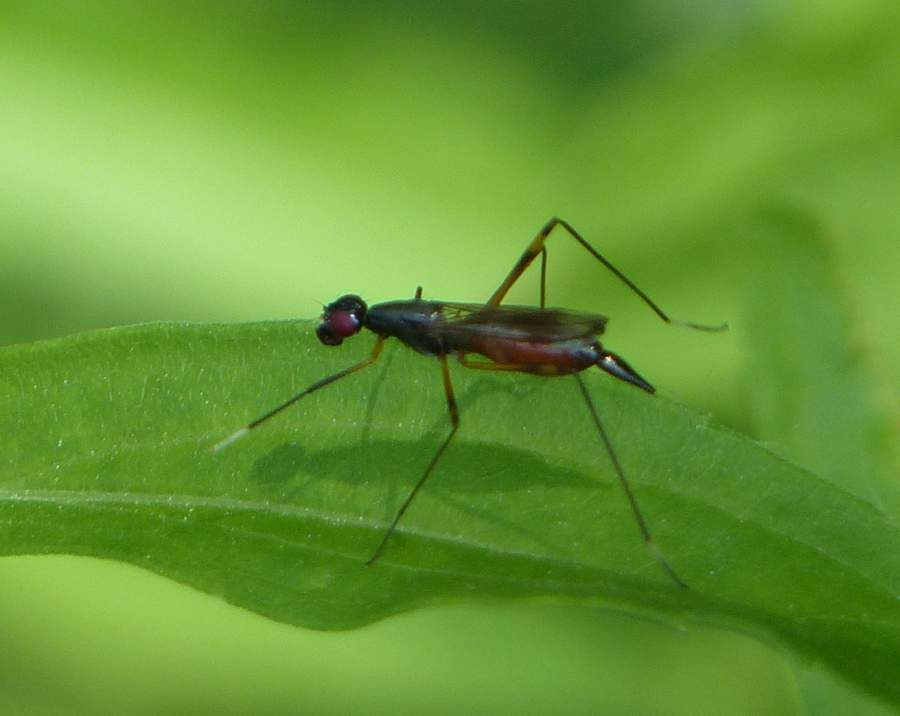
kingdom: Animalia
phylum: Arthropoda
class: Insecta
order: Diptera
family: Micropezidae
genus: Rainieria
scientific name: Rainieria antennaepes
